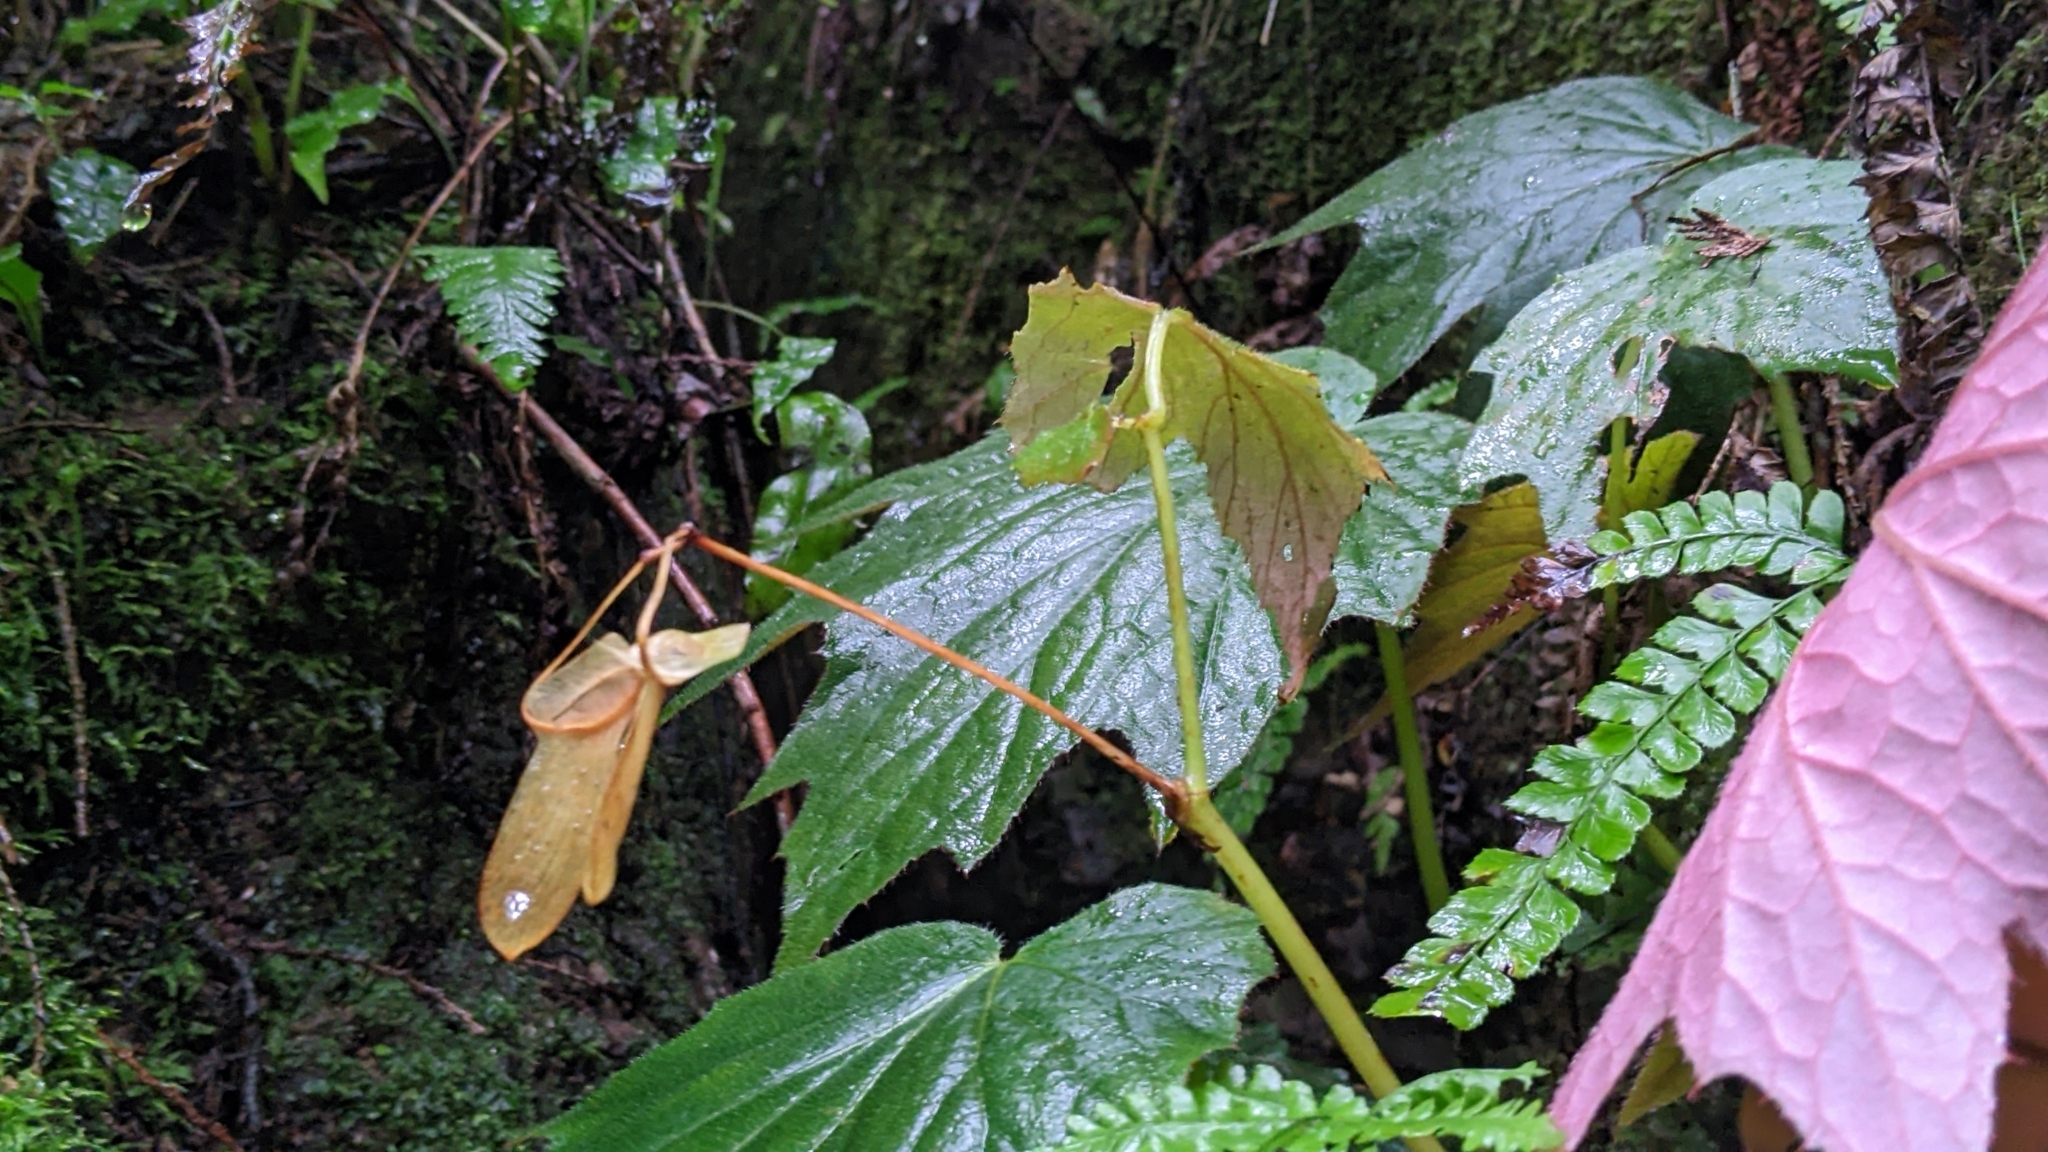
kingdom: Plantae
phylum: Tracheophyta
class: Magnoliopsida
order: Cucurbitales
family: Begoniaceae
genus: Begonia
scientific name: Begonia palmata
